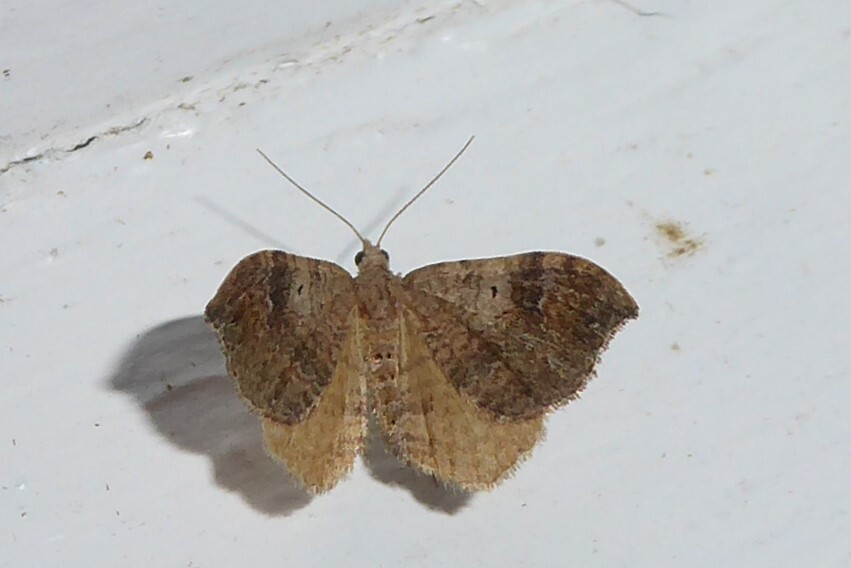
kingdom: Animalia
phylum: Arthropoda
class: Insecta
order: Lepidoptera
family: Geometridae
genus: Homodotis
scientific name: Homodotis megaspilata
